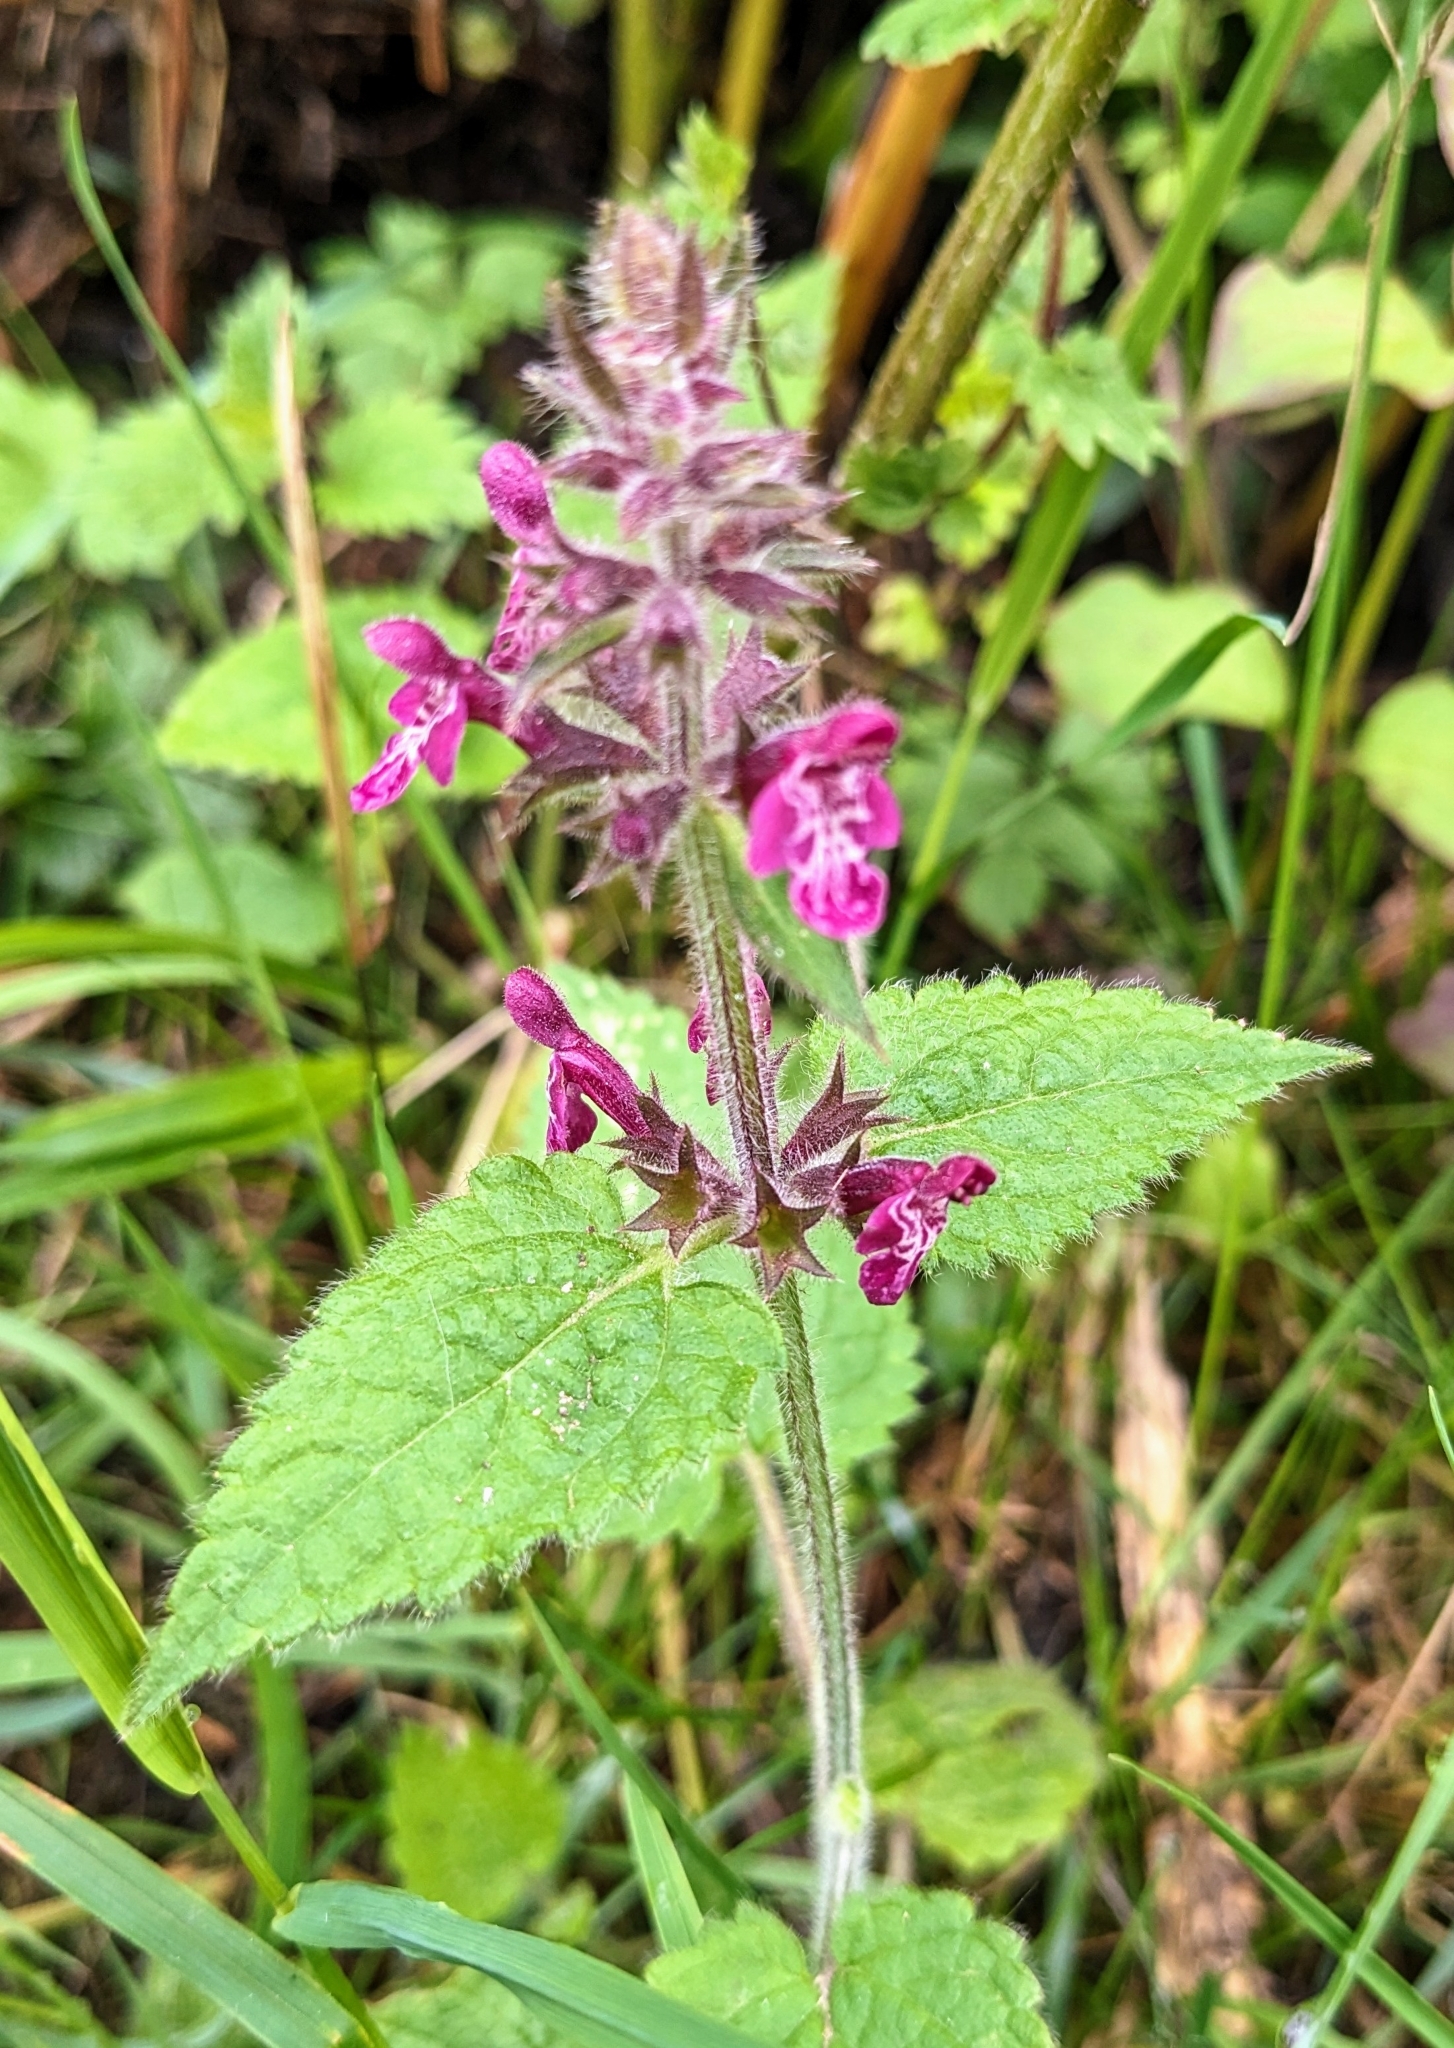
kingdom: Plantae
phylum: Tracheophyta
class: Magnoliopsida
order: Lamiales
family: Lamiaceae
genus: Stachys
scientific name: Stachys sylvatica
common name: Hedge woundwort
